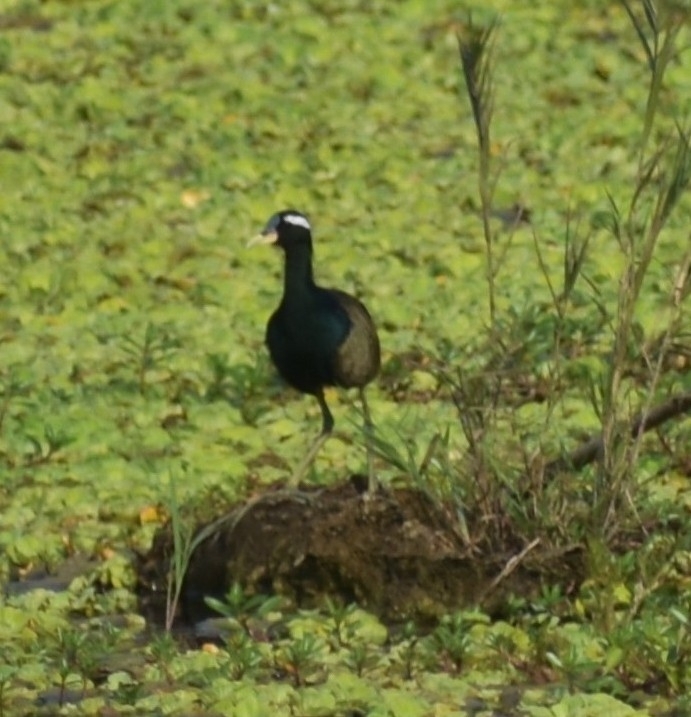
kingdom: Animalia
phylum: Chordata
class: Aves
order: Charadriiformes
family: Jacanidae
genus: Metopidius
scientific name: Metopidius indicus
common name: Bronze-winged jacana
